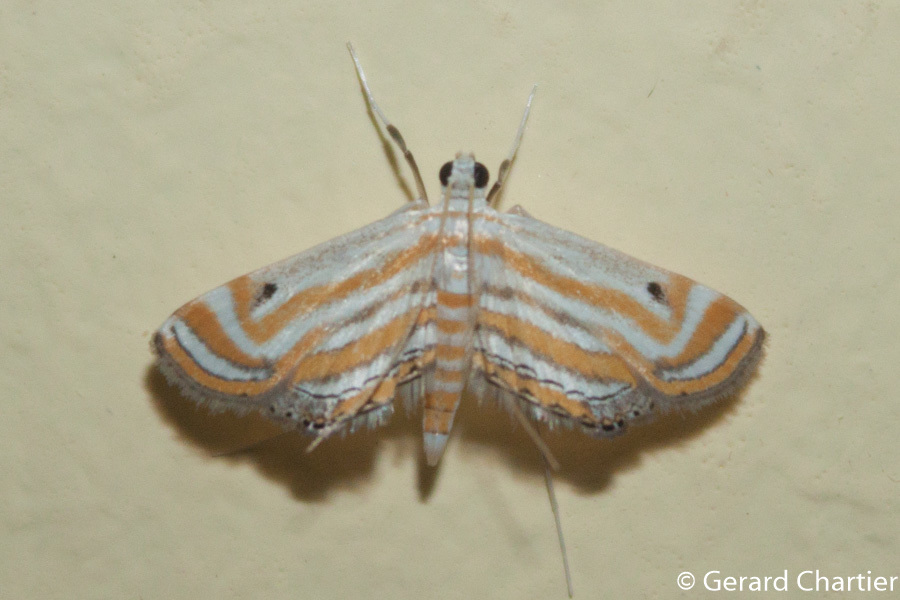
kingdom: Animalia
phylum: Arthropoda
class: Insecta
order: Lepidoptera
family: Crambidae
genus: Parapoynx
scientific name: Parapoynx villidalis
